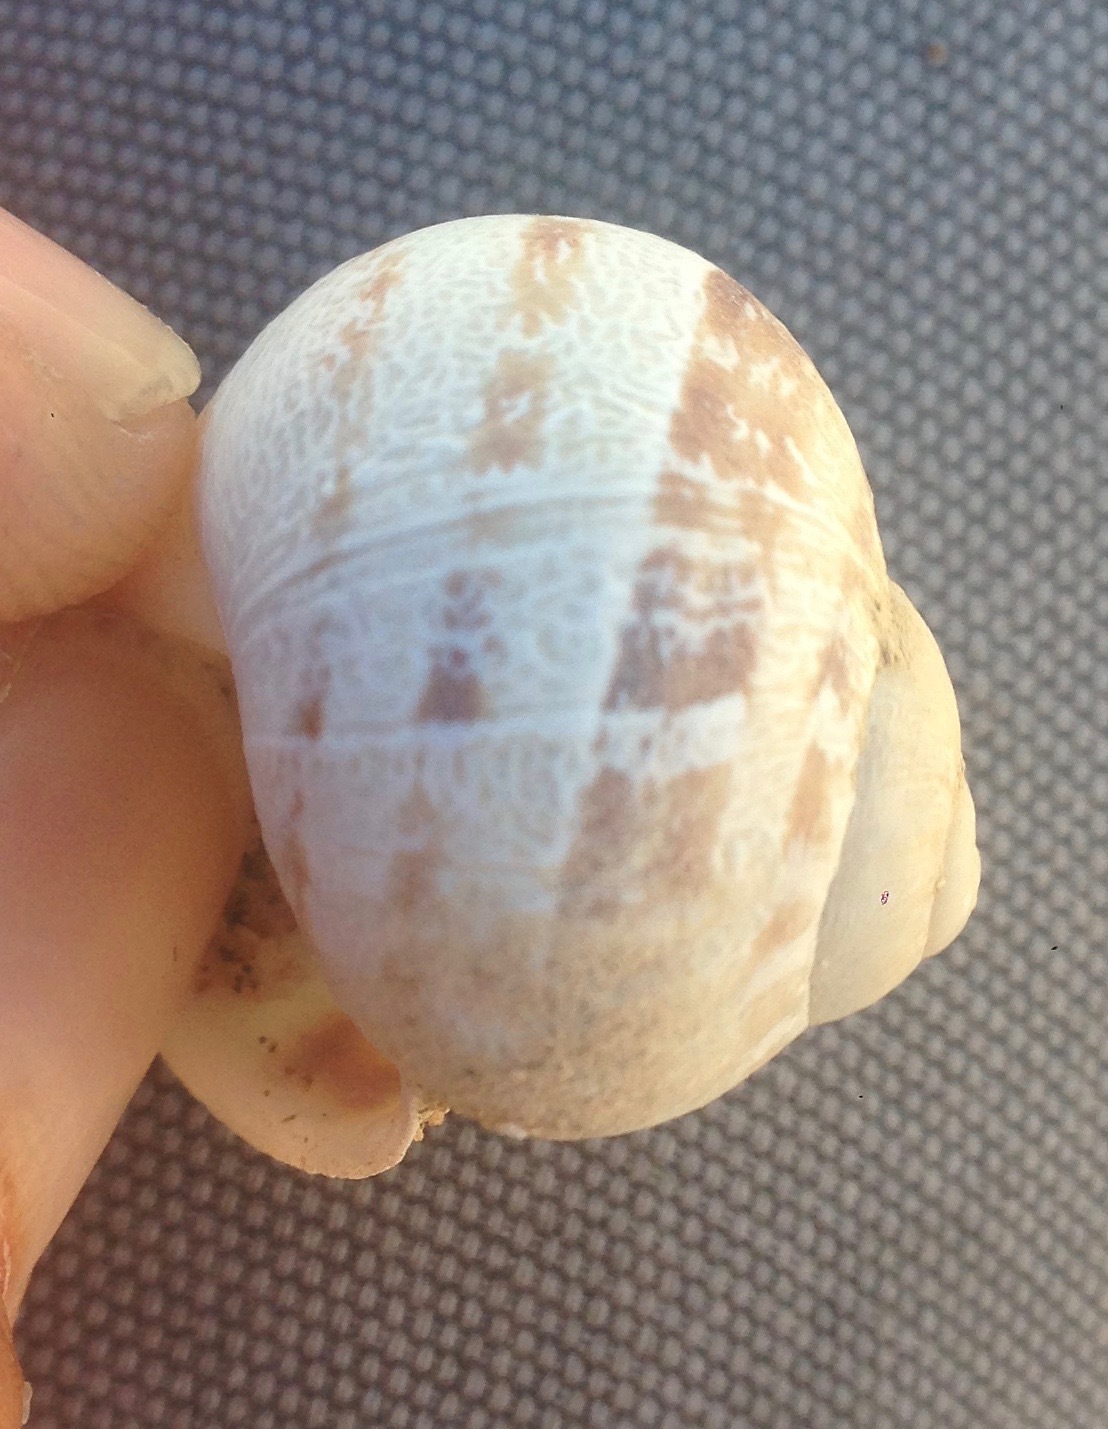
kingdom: Animalia
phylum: Mollusca
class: Gastropoda
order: Stylommatophora
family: Helicidae
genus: Cornu
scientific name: Cornu aspersum
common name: Brown garden snail
